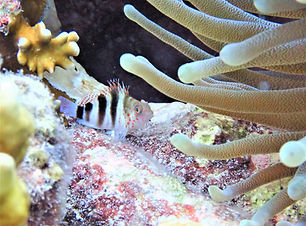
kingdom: Animalia
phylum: Chordata
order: Perciformes
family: Cirrhitidae
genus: Amblycirrhitus
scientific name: Amblycirrhitus pinos
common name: Redspotted hawkfish
